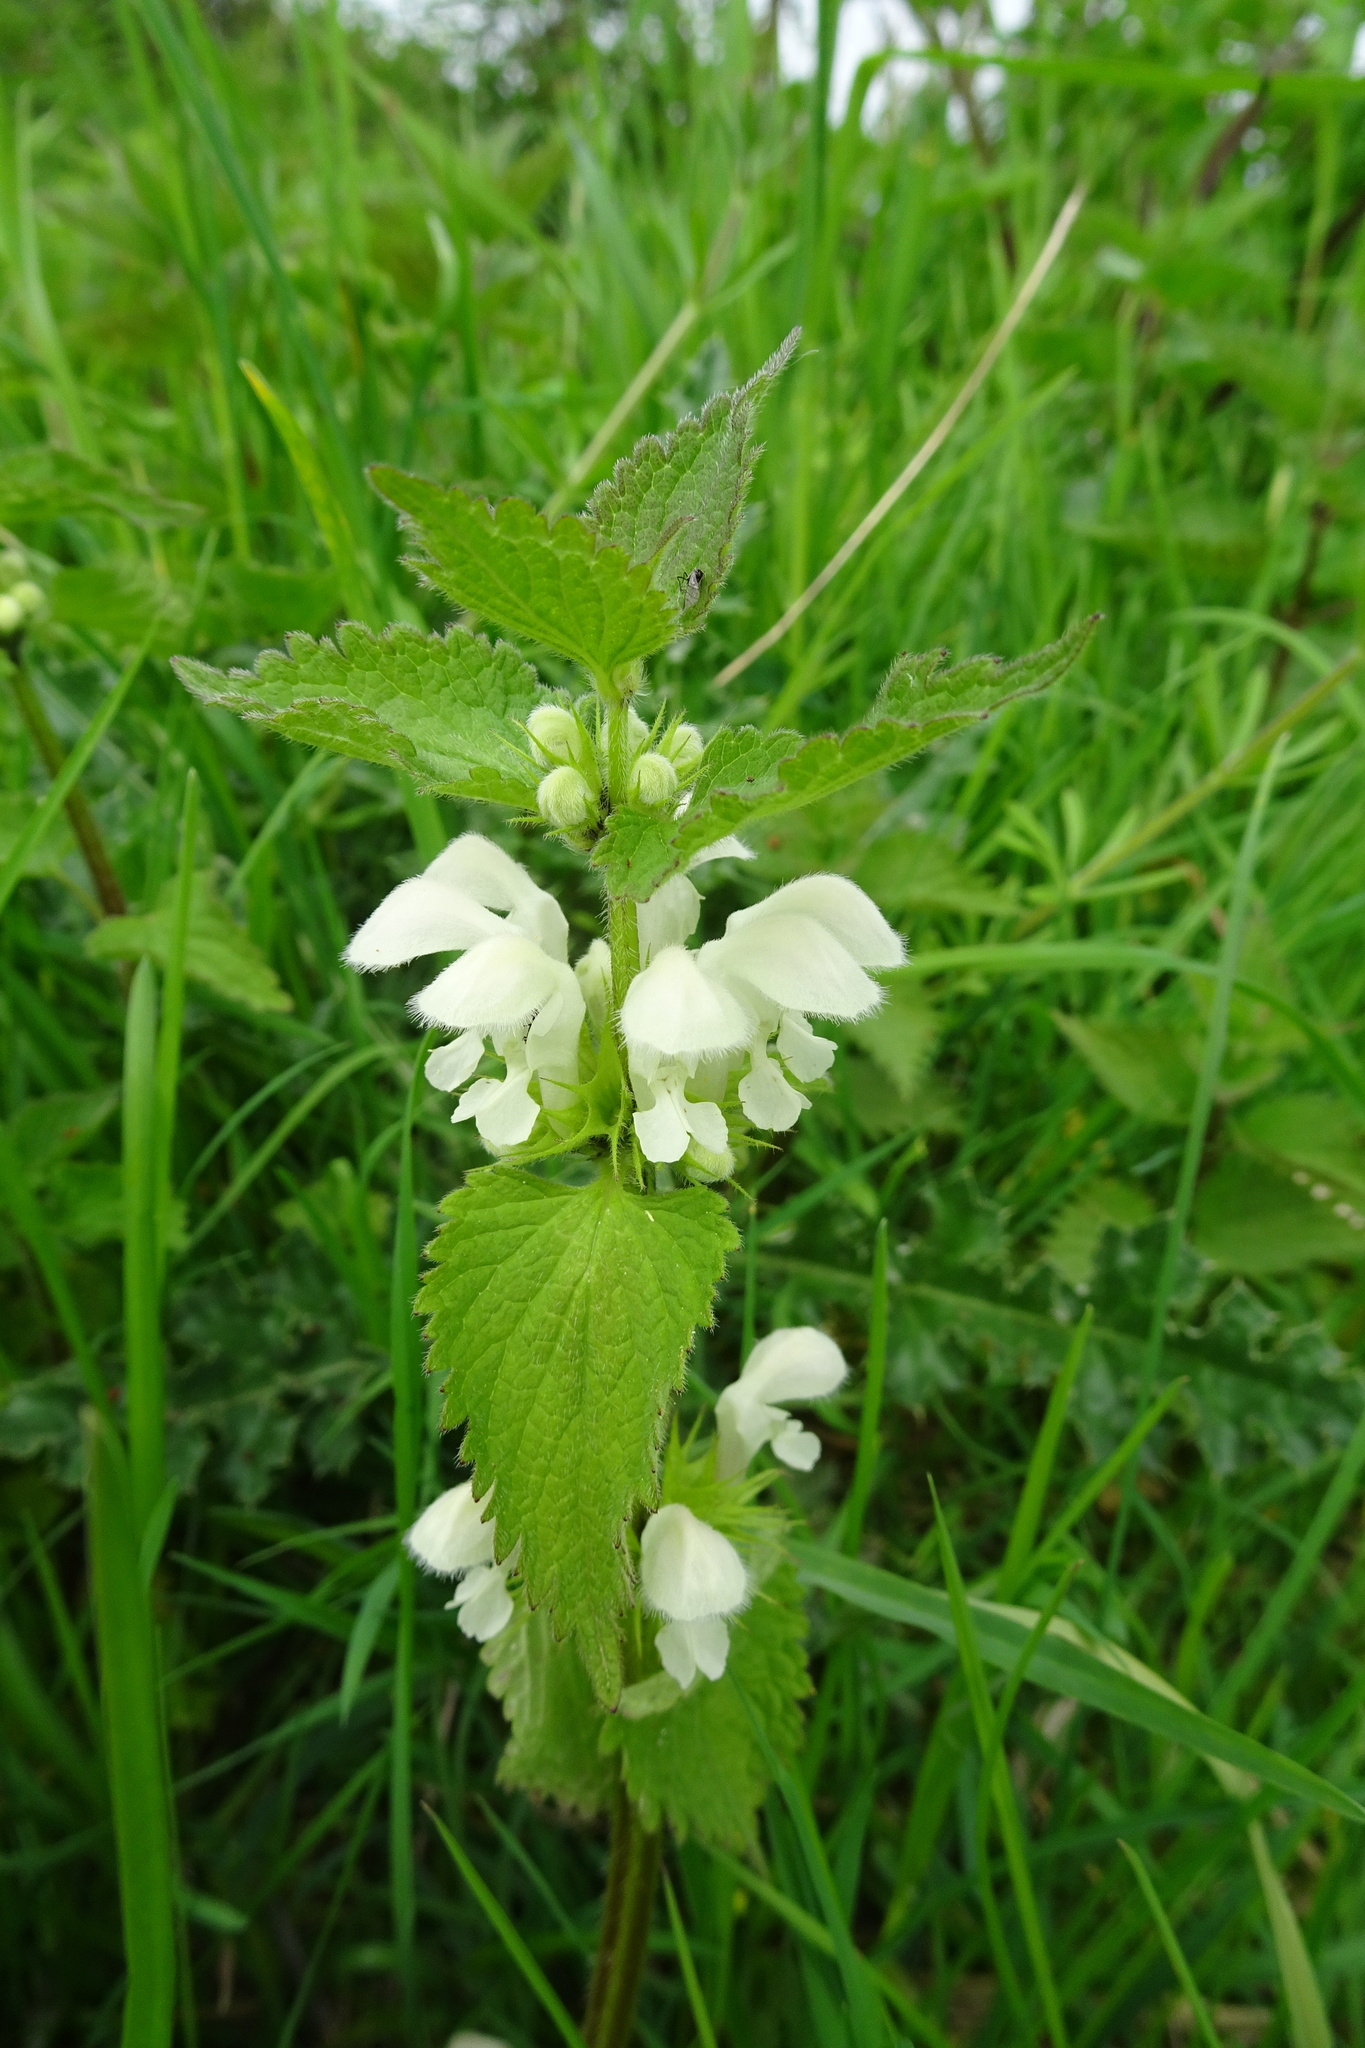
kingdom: Plantae
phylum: Tracheophyta
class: Magnoliopsida
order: Lamiales
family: Lamiaceae
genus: Lamium
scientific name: Lamium album
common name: White dead-nettle
